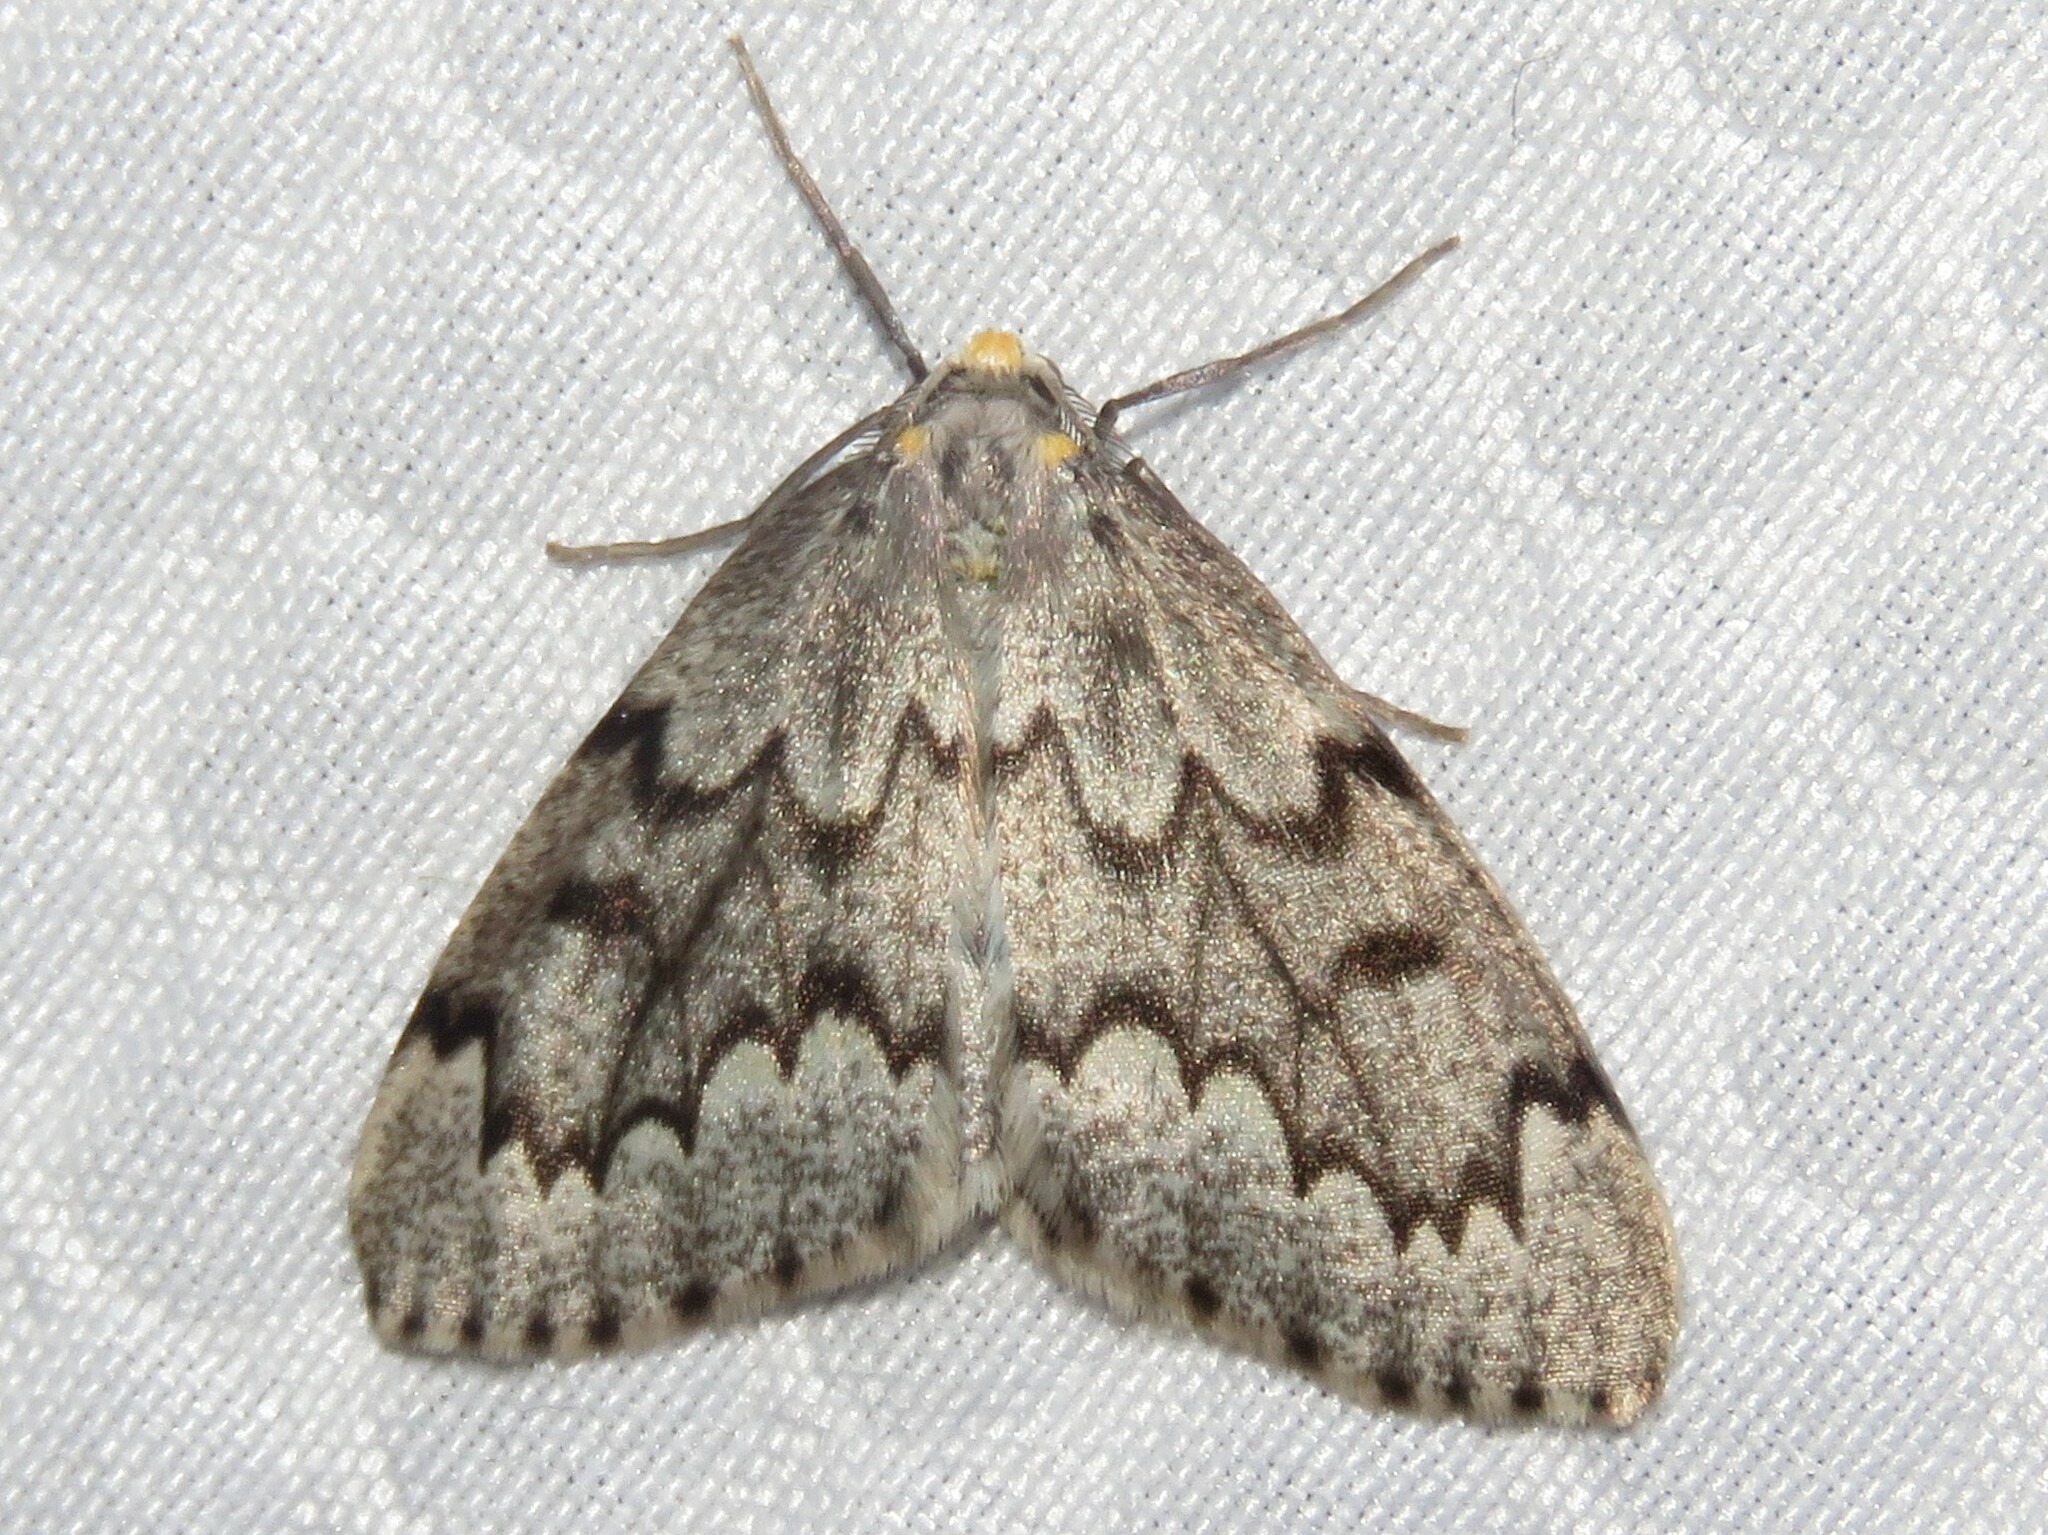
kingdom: Animalia
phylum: Arthropoda
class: Insecta
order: Lepidoptera
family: Geometridae
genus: Nepytia
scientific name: Nepytia canosaria
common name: False hemlock looper
